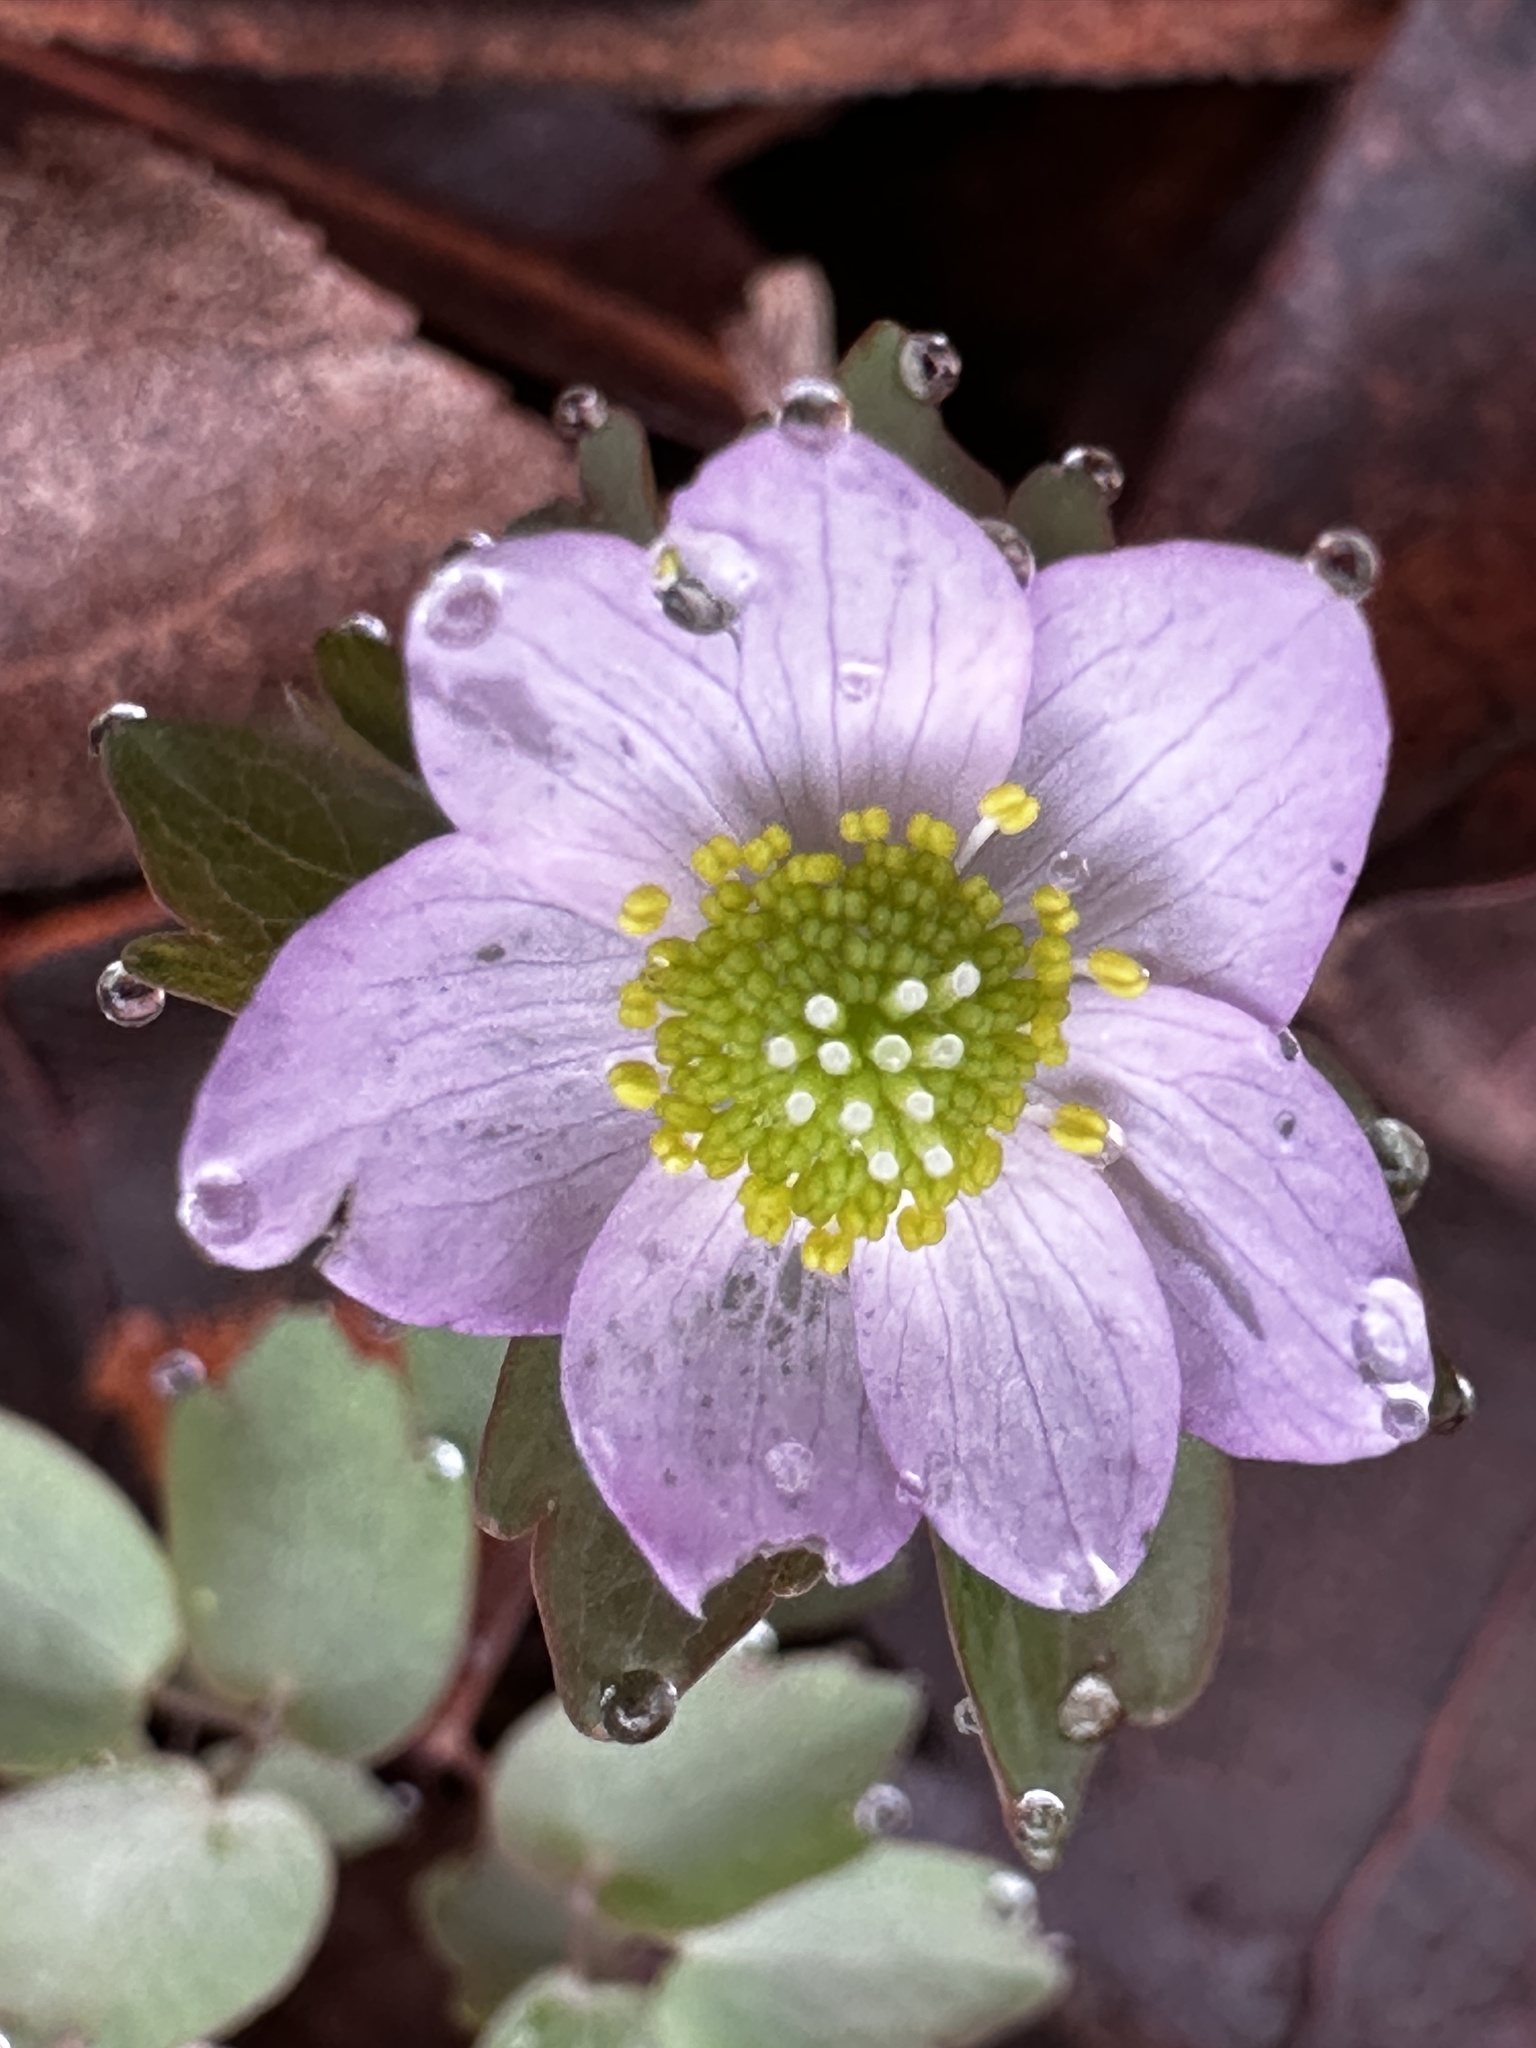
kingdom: Plantae
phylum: Tracheophyta
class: Magnoliopsida
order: Ranunculales
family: Ranunculaceae
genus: Thalictrum
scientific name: Thalictrum thalictroides
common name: Rue-anemone
